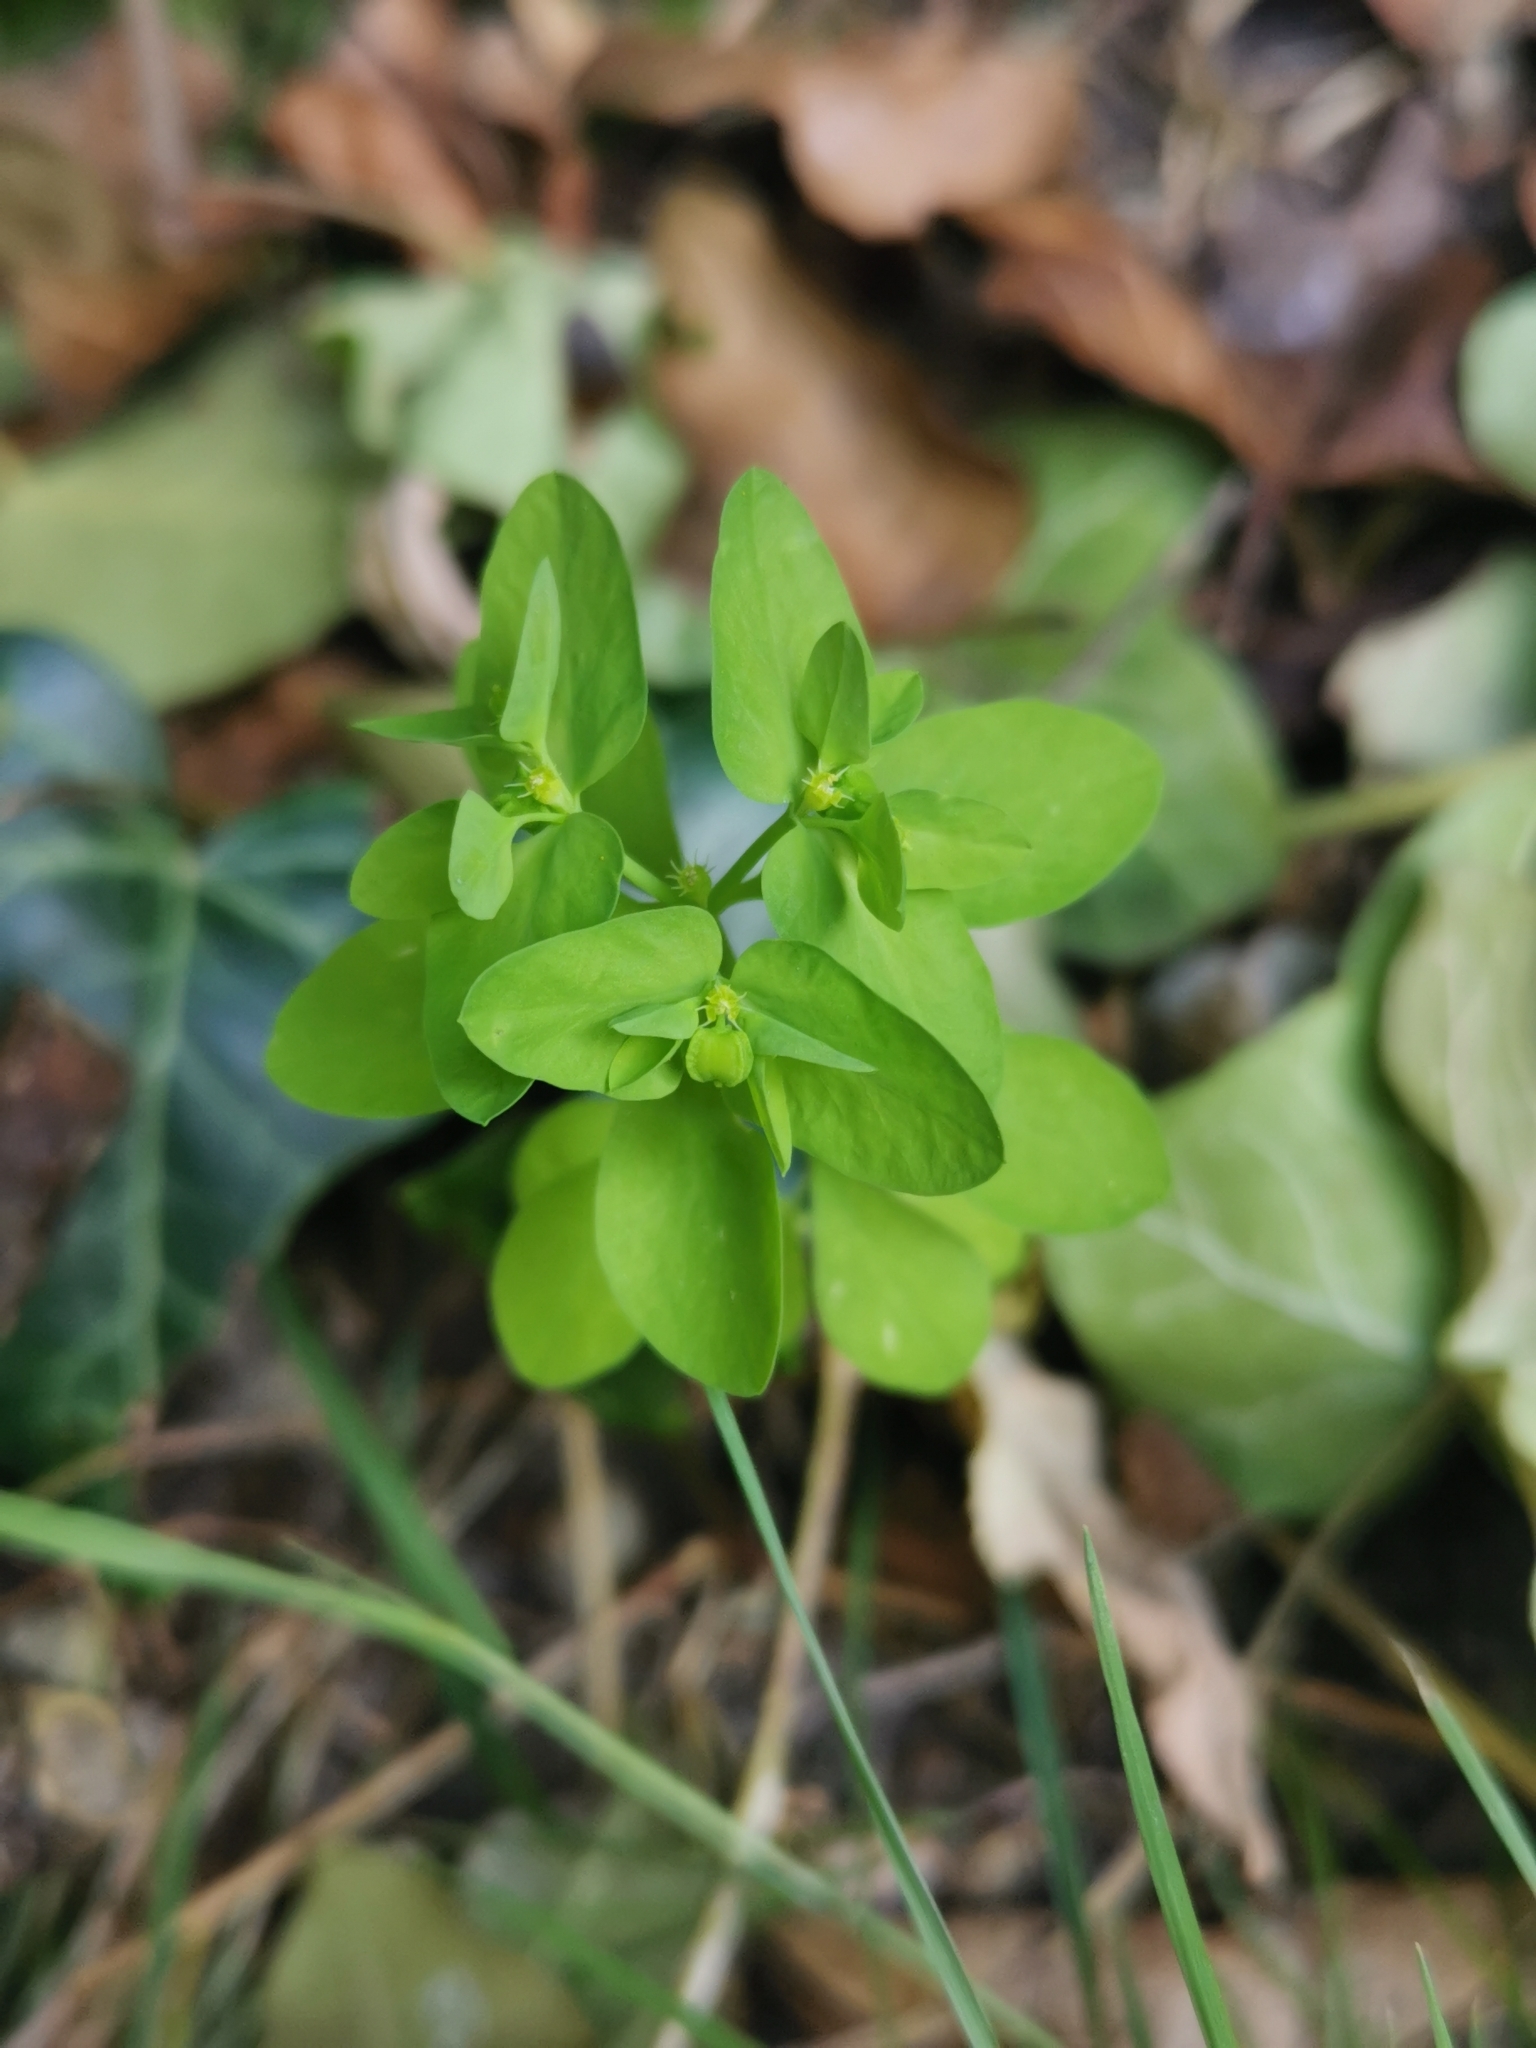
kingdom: Plantae
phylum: Tracheophyta
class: Magnoliopsida
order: Malpighiales
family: Euphorbiaceae
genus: Euphorbia
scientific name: Euphorbia peplus
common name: Petty spurge
